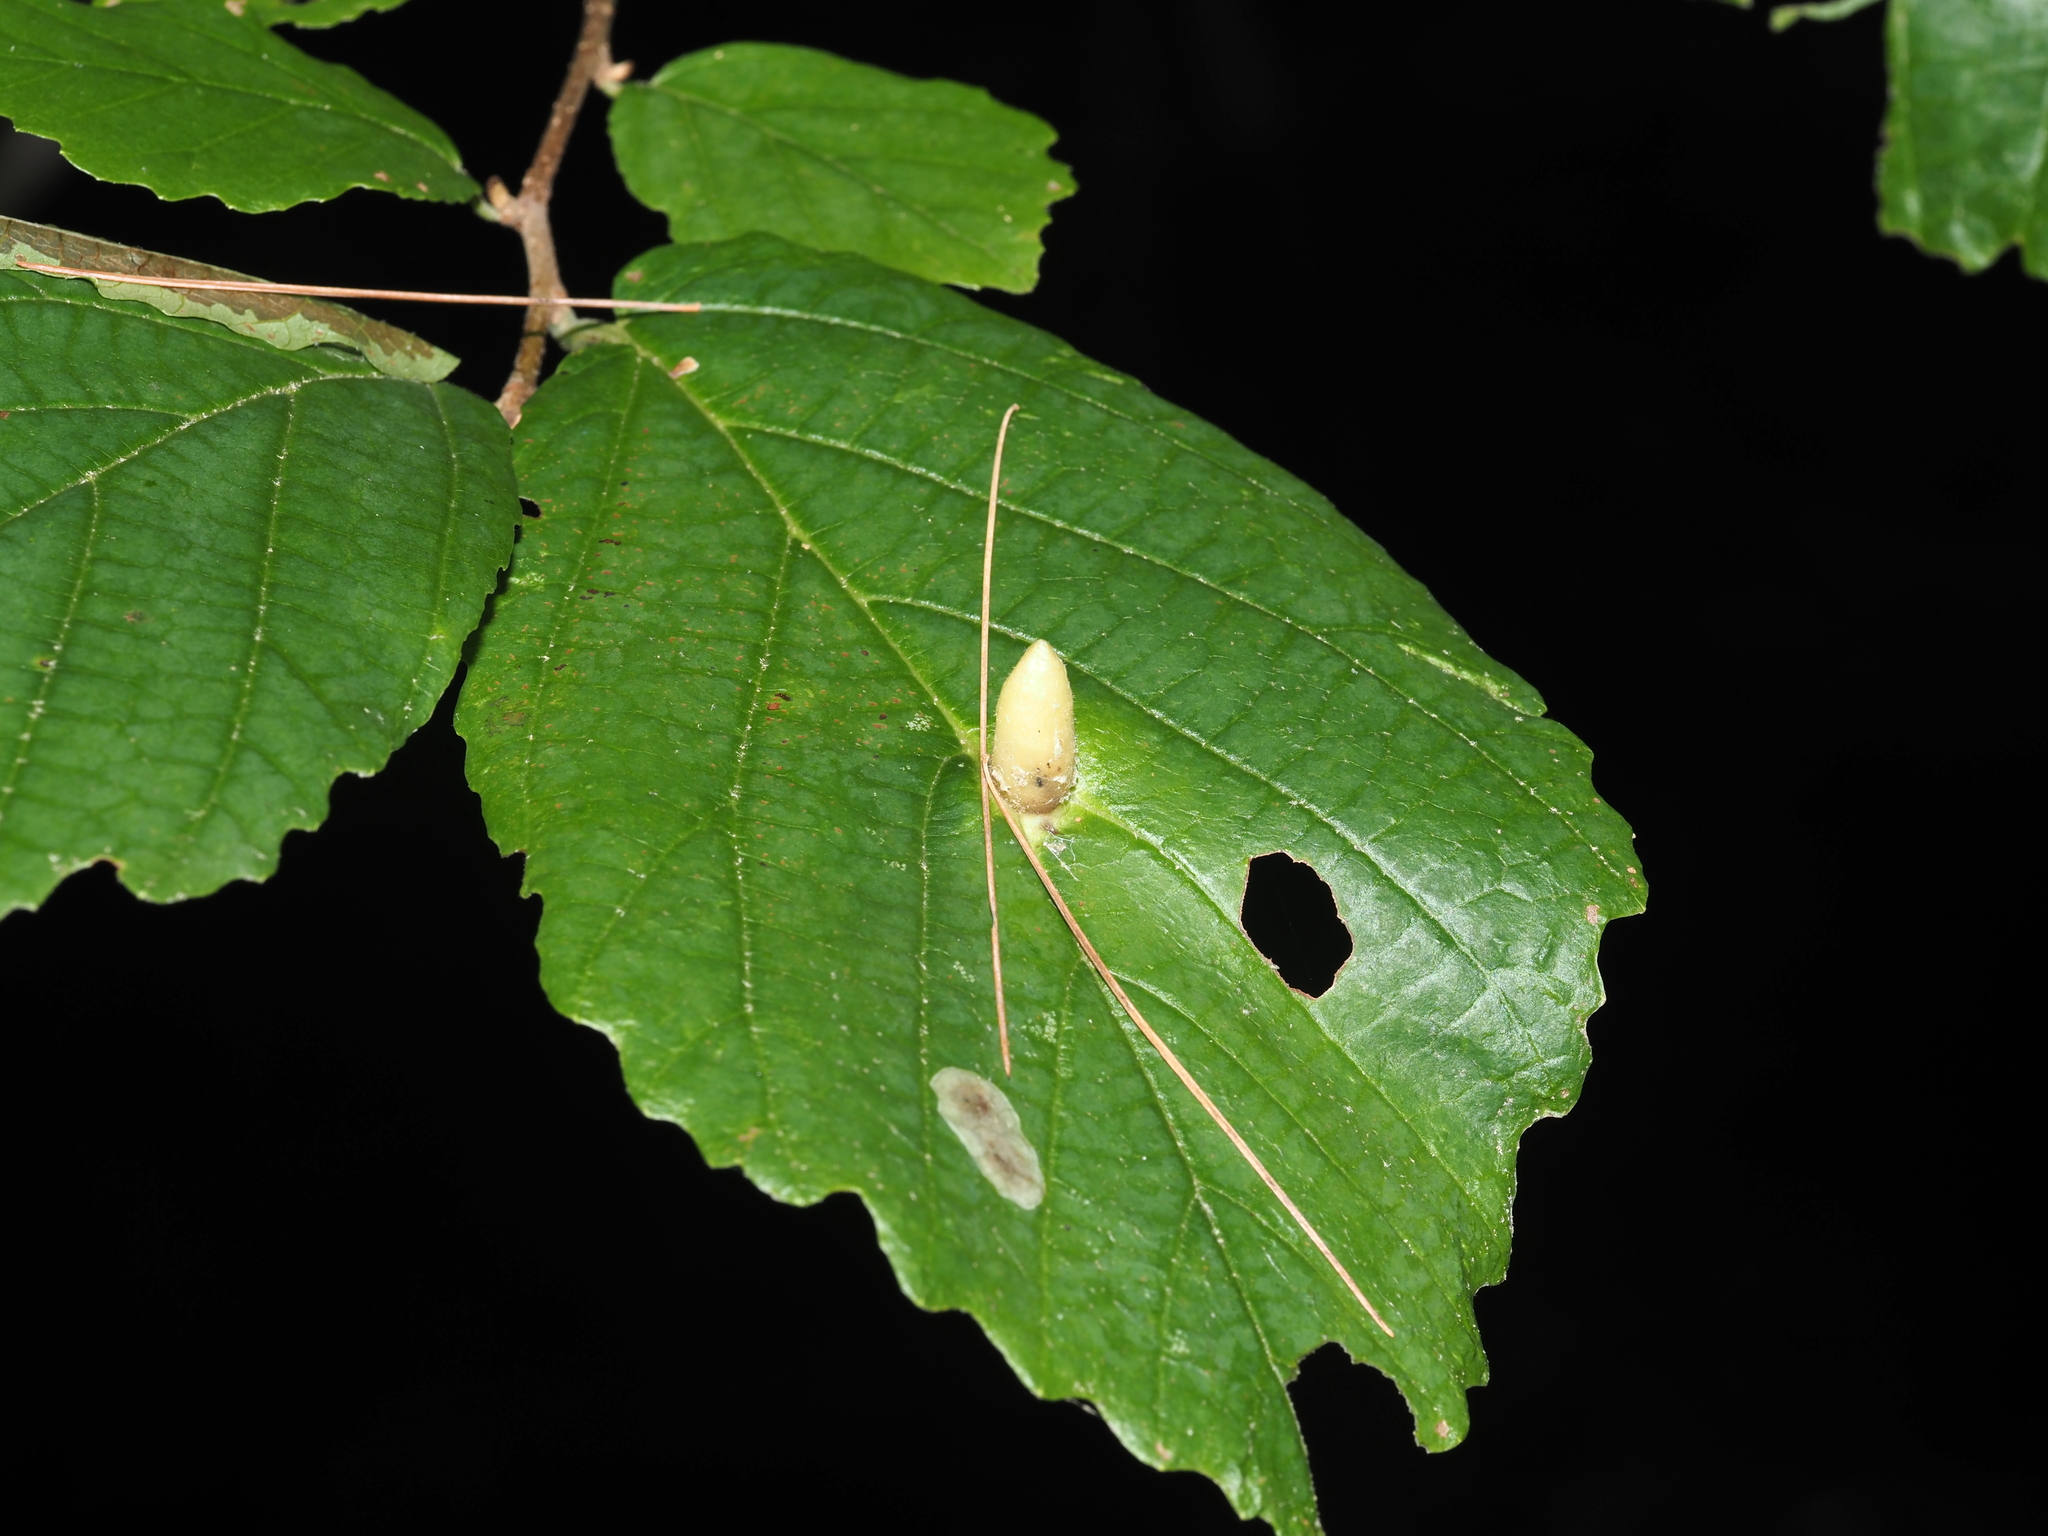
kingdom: Animalia
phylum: Arthropoda
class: Insecta
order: Lepidoptera
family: Gracillariidae
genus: Cameraria
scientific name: Cameraria hamameliella
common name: Witchhazel leafminer
